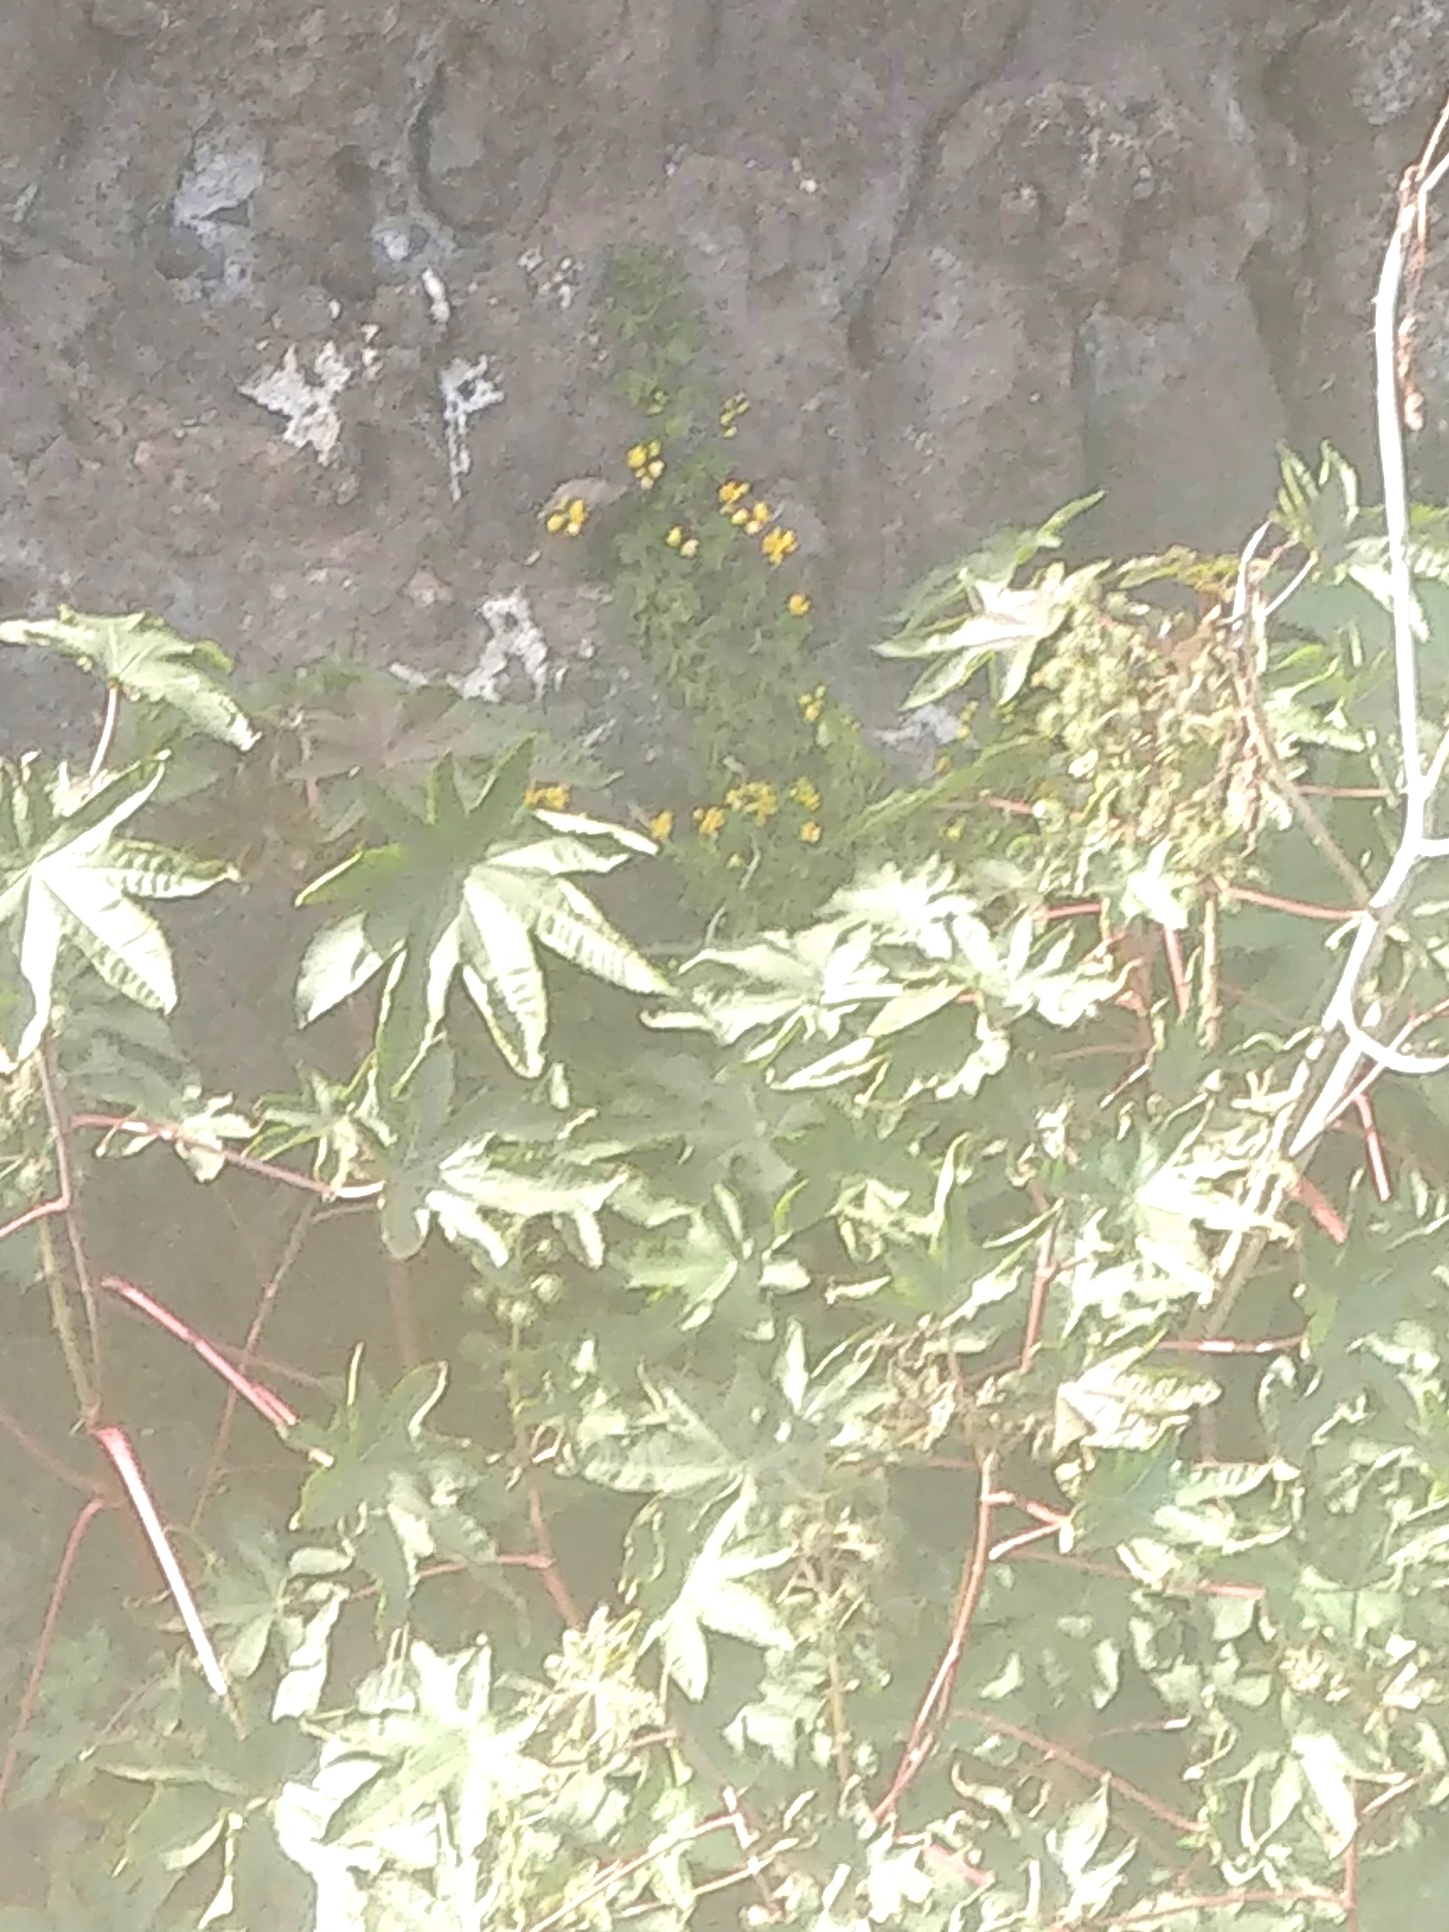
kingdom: Plantae
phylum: Tracheophyta
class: Magnoliopsida
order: Malpighiales
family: Euphorbiaceae
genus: Ricinus
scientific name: Ricinus communis
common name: Castor-oil-plant
